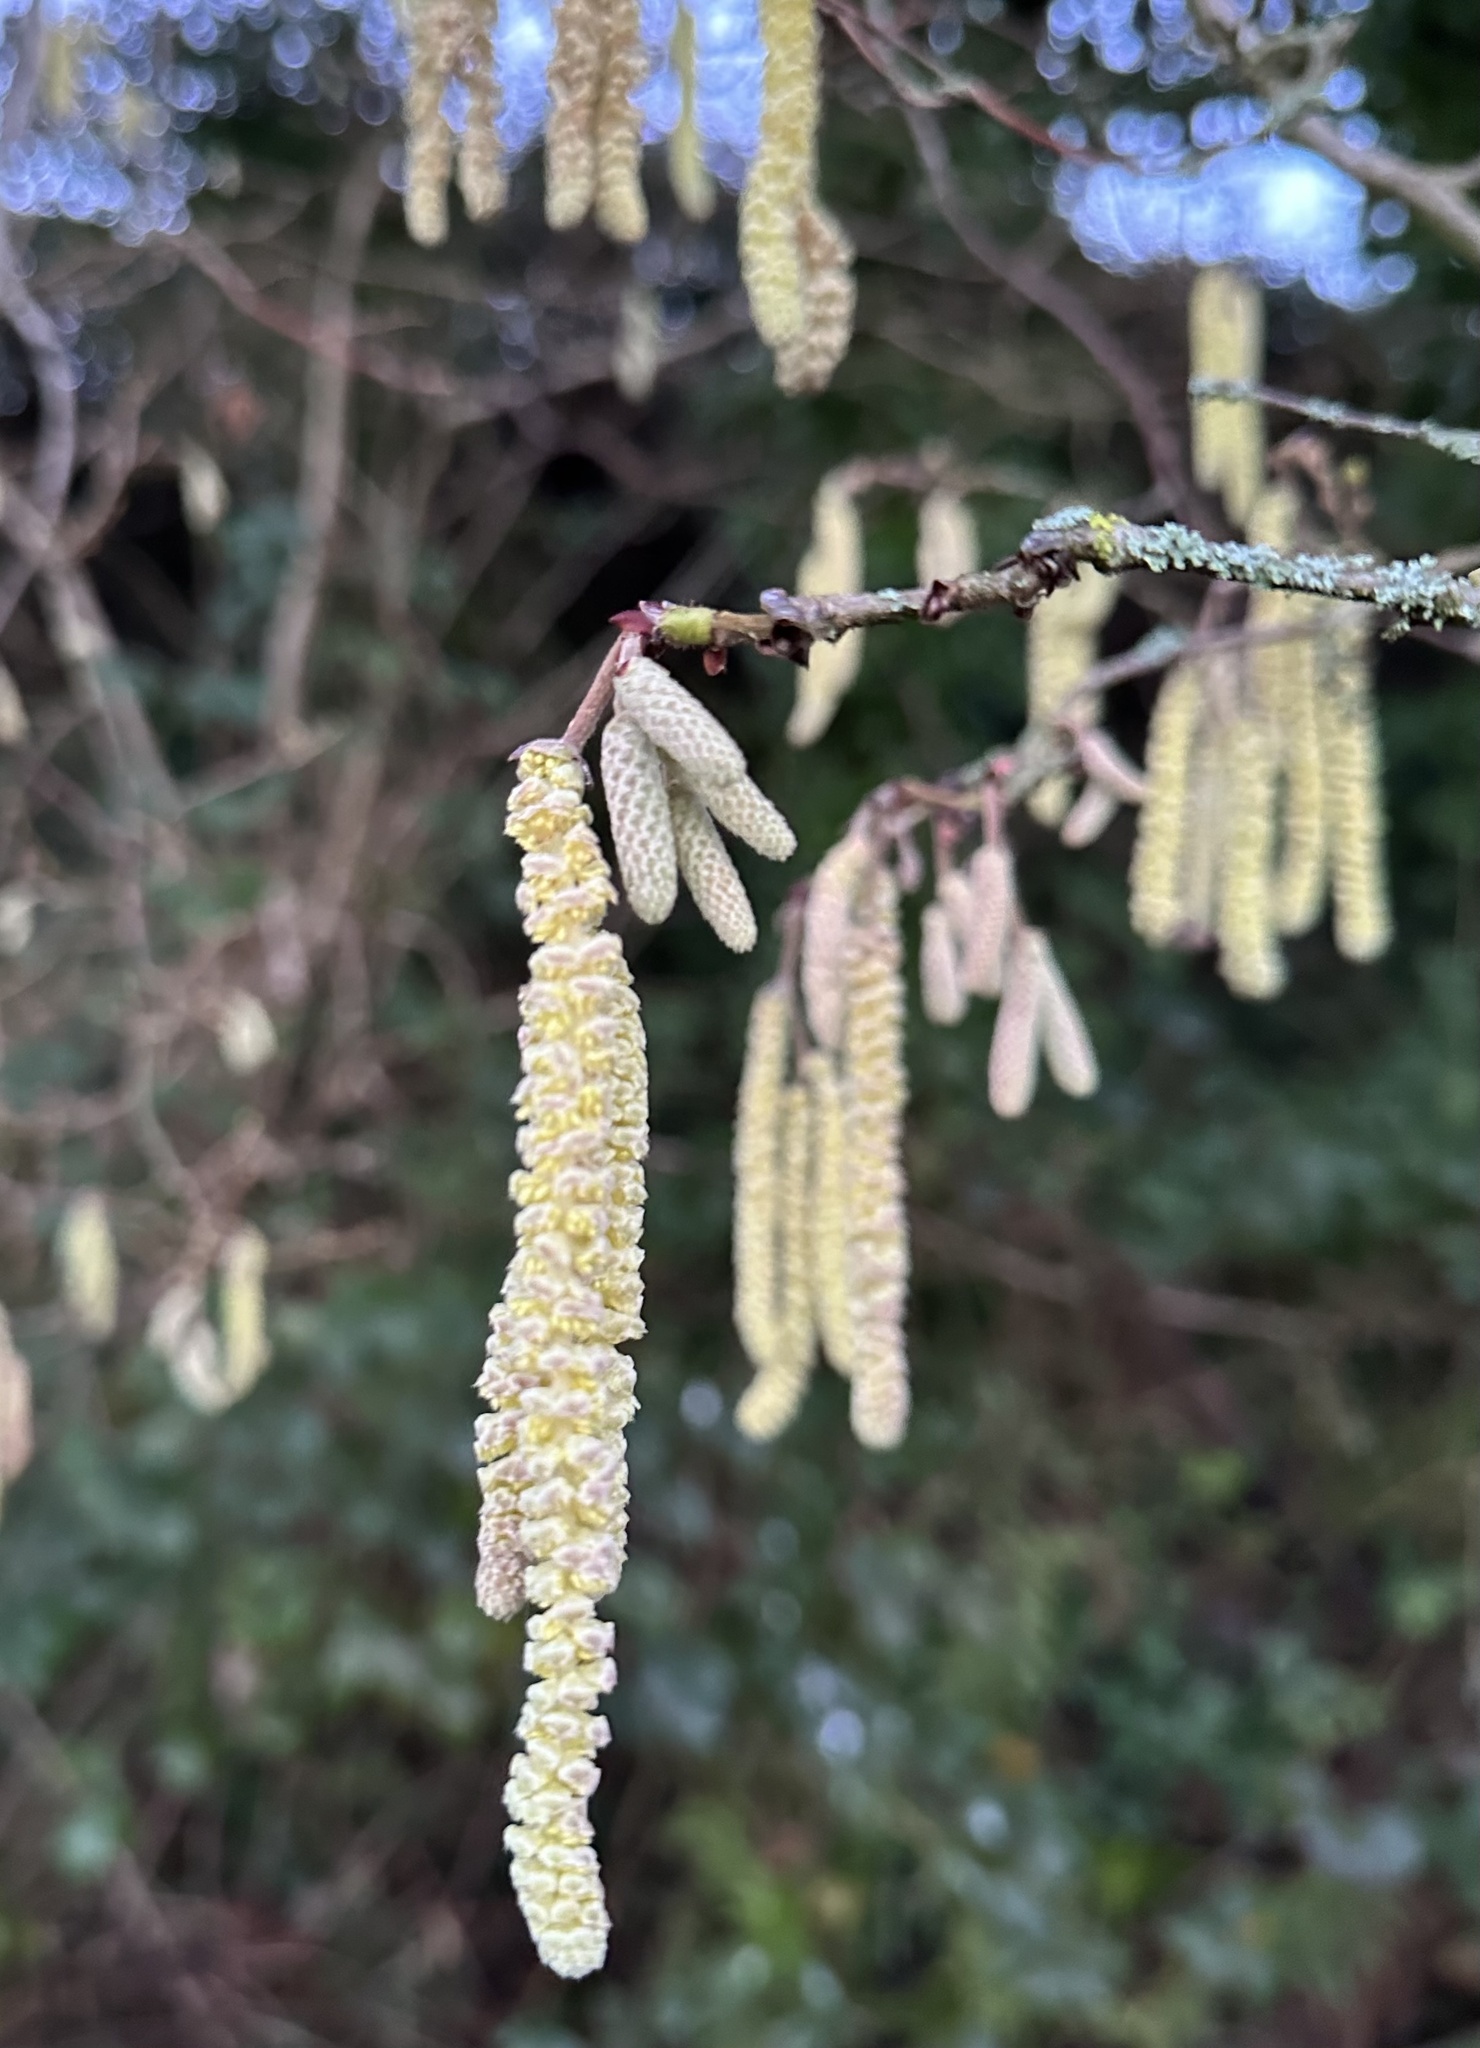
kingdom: Plantae
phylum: Tracheophyta
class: Magnoliopsida
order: Fagales
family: Betulaceae
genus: Corylus
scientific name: Corylus avellana
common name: European hazel
